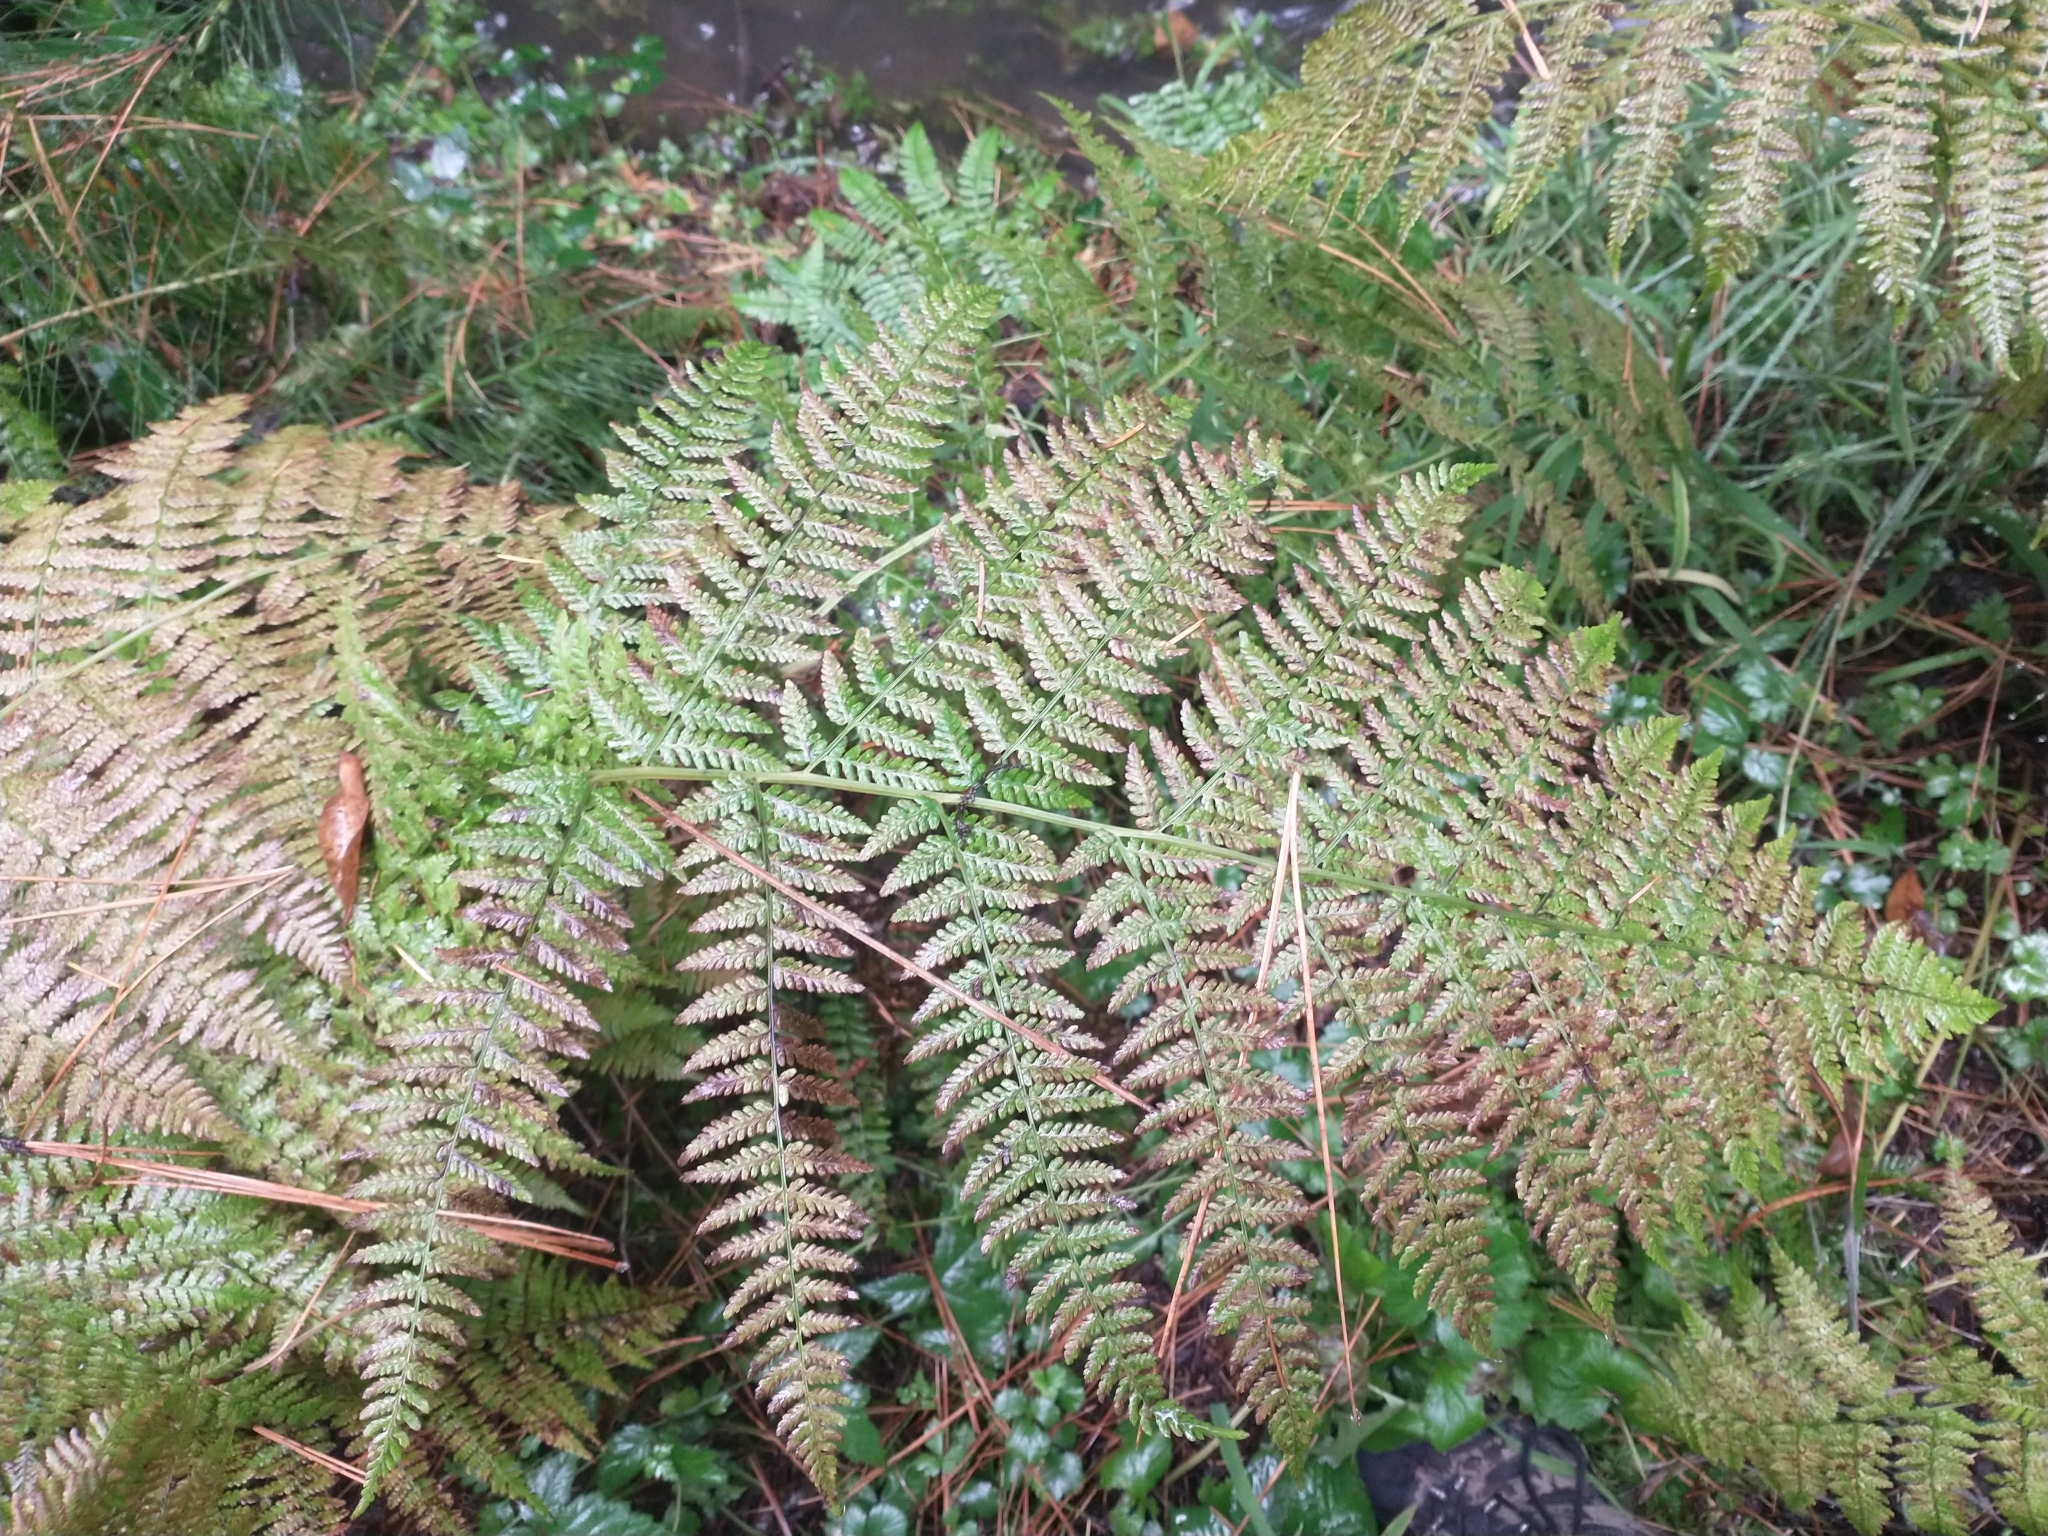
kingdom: Plantae
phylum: Tracheophyta
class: Polypodiopsida
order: Polypodiales
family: Athyriaceae
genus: Athyrium
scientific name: Athyrium filix-femina
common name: Lady fern
